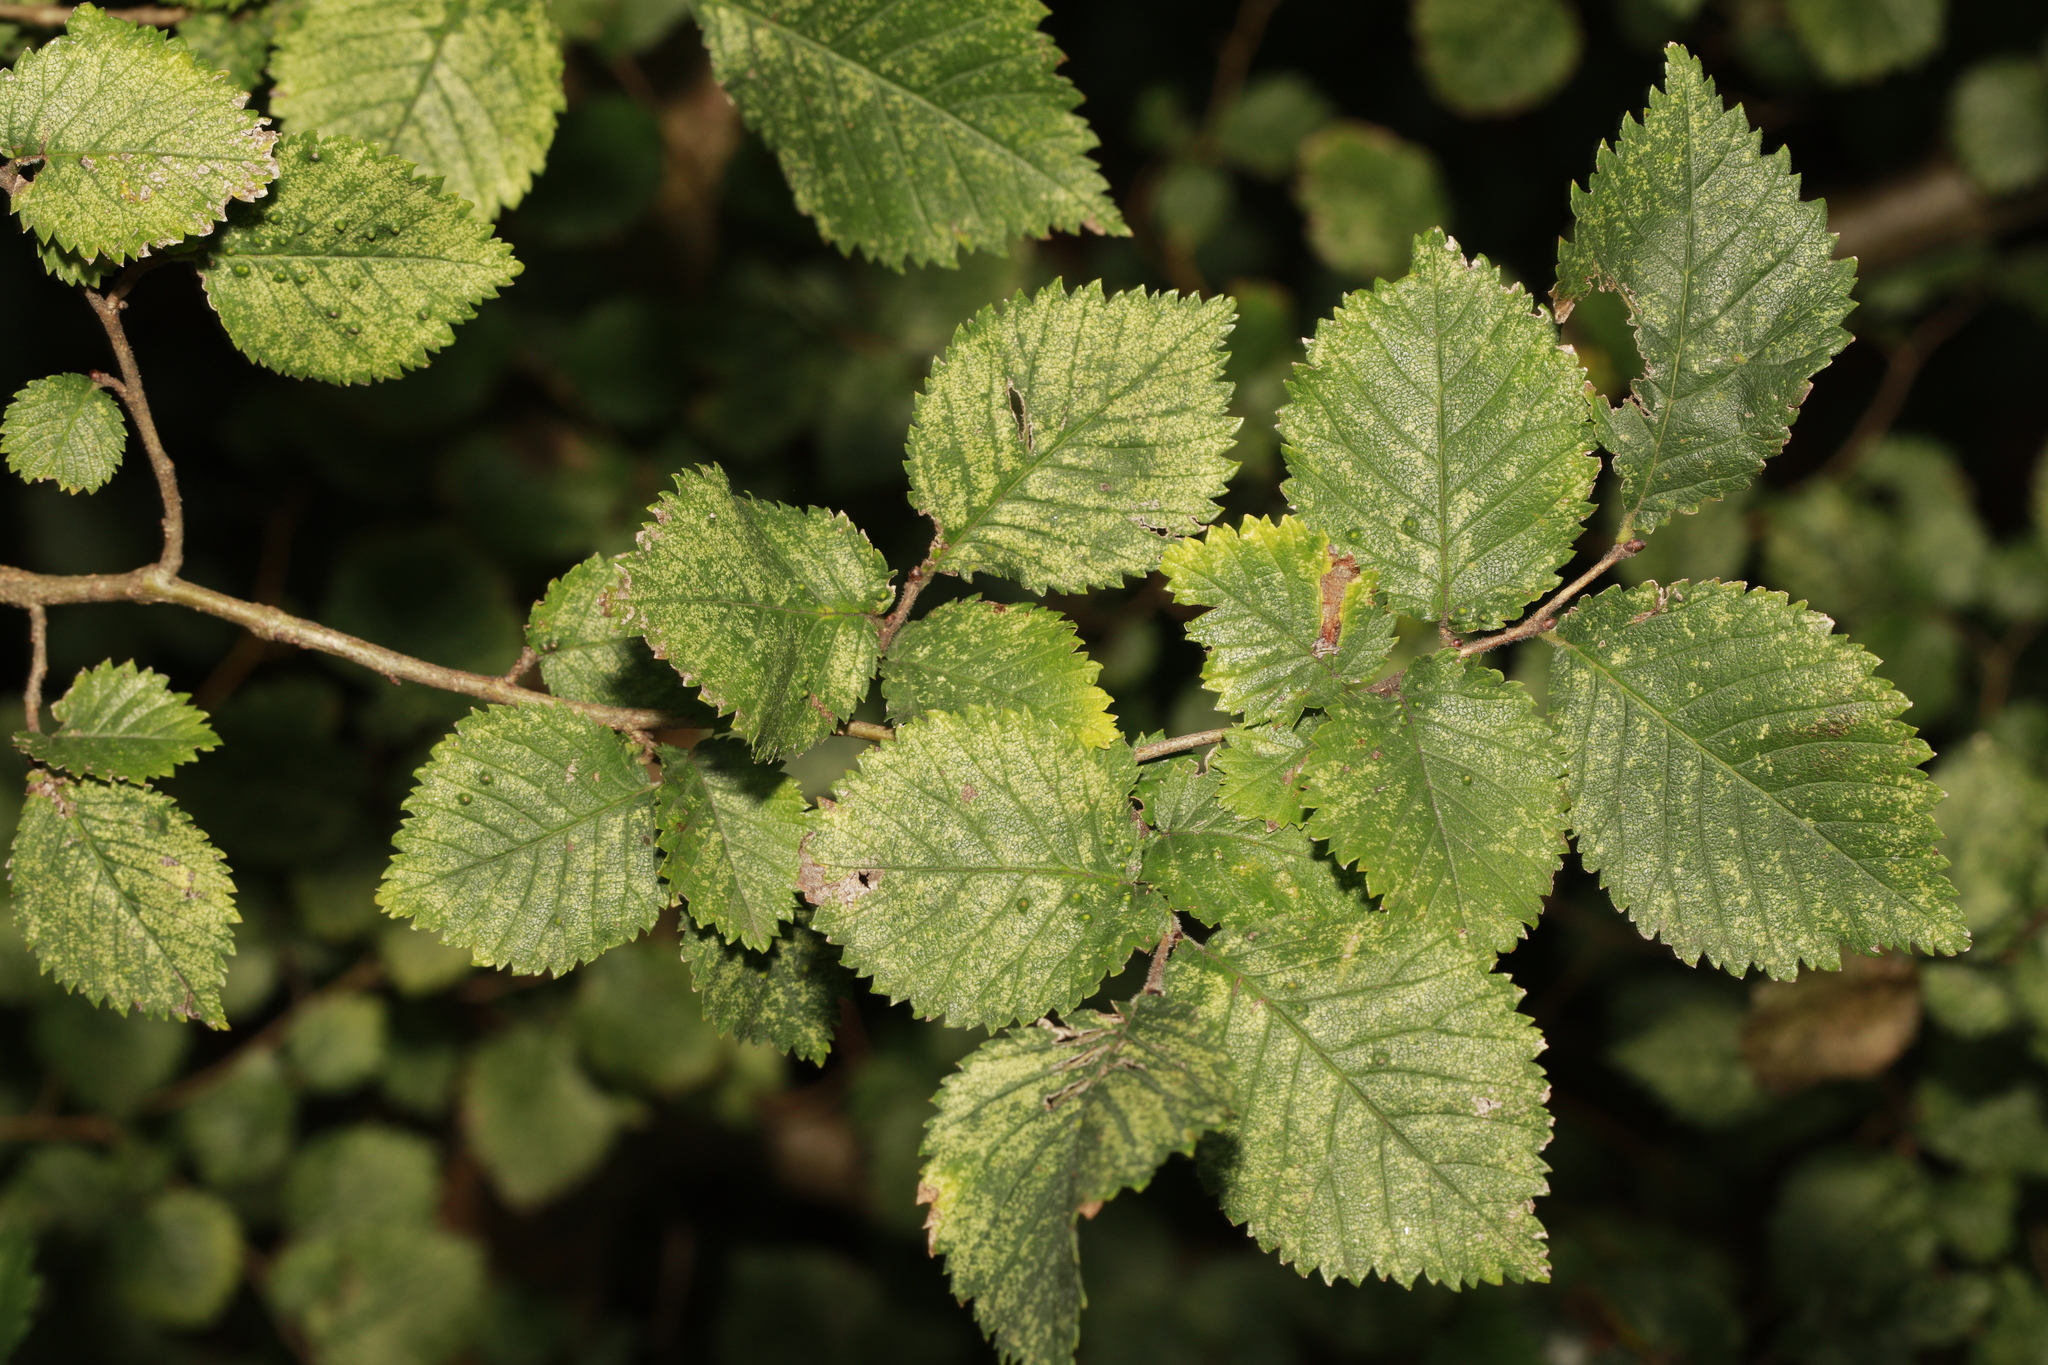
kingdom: Plantae
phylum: Tracheophyta
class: Magnoliopsida
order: Rosales
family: Ulmaceae
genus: Ulmus
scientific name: Ulmus minor
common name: Small-leaved elm
